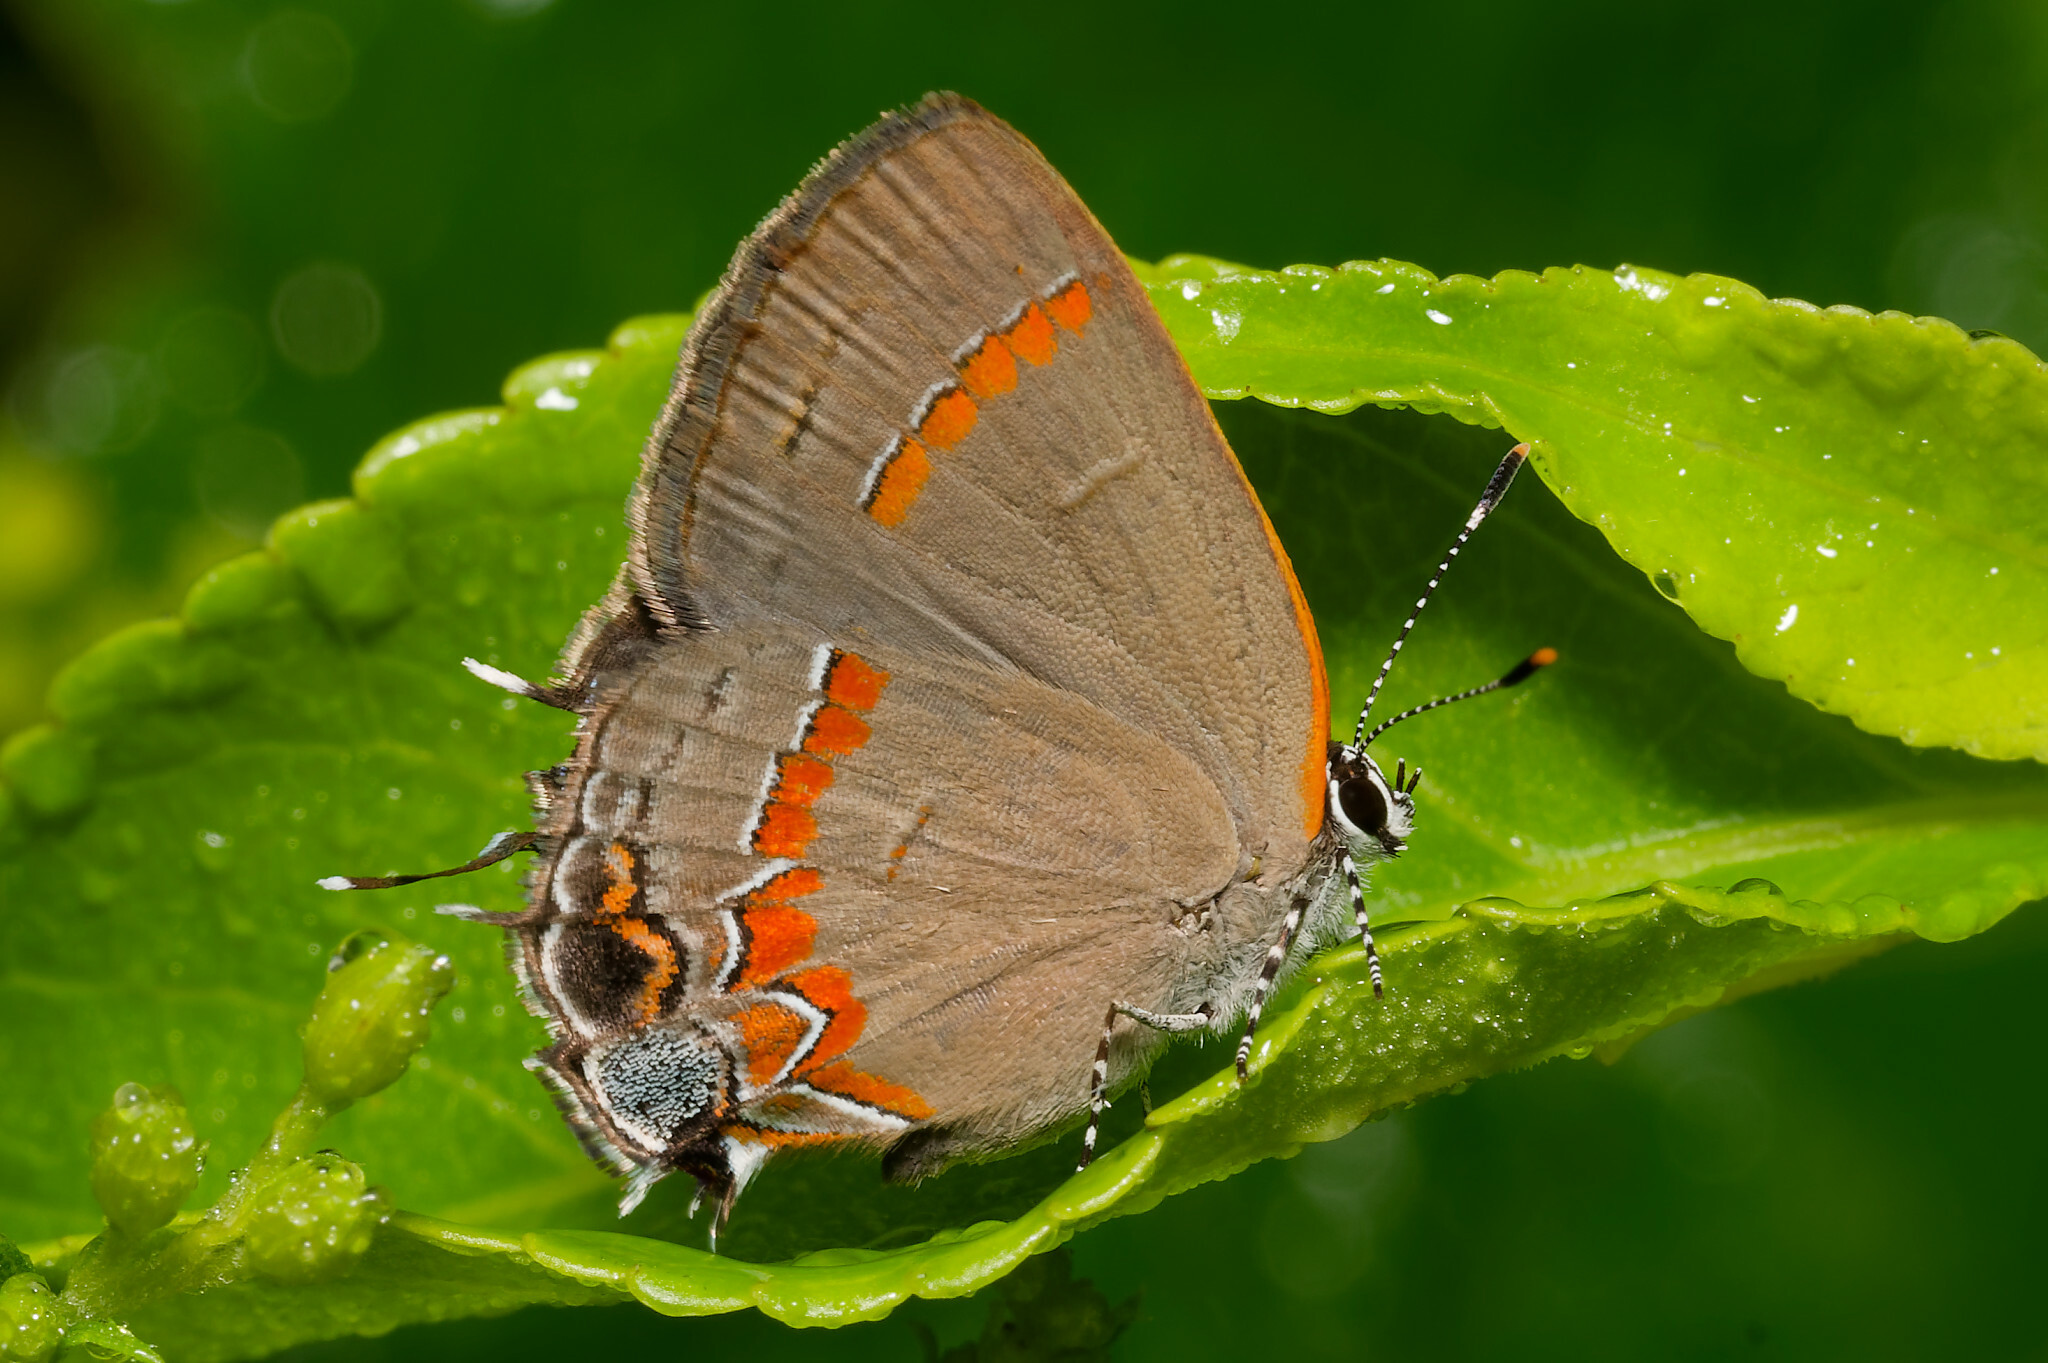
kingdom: Animalia
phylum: Arthropoda
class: Insecta
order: Lepidoptera
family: Lycaenidae
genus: Calycopis
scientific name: Calycopis cecrops
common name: Red-banded hairstreak
